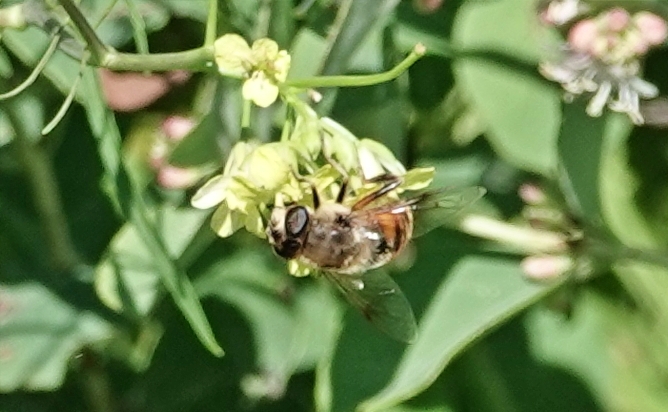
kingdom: Animalia
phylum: Arthropoda
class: Insecta
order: Diptera
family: Syrphidae
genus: Eristalis
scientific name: Eristalis tenax
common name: Drone fly
